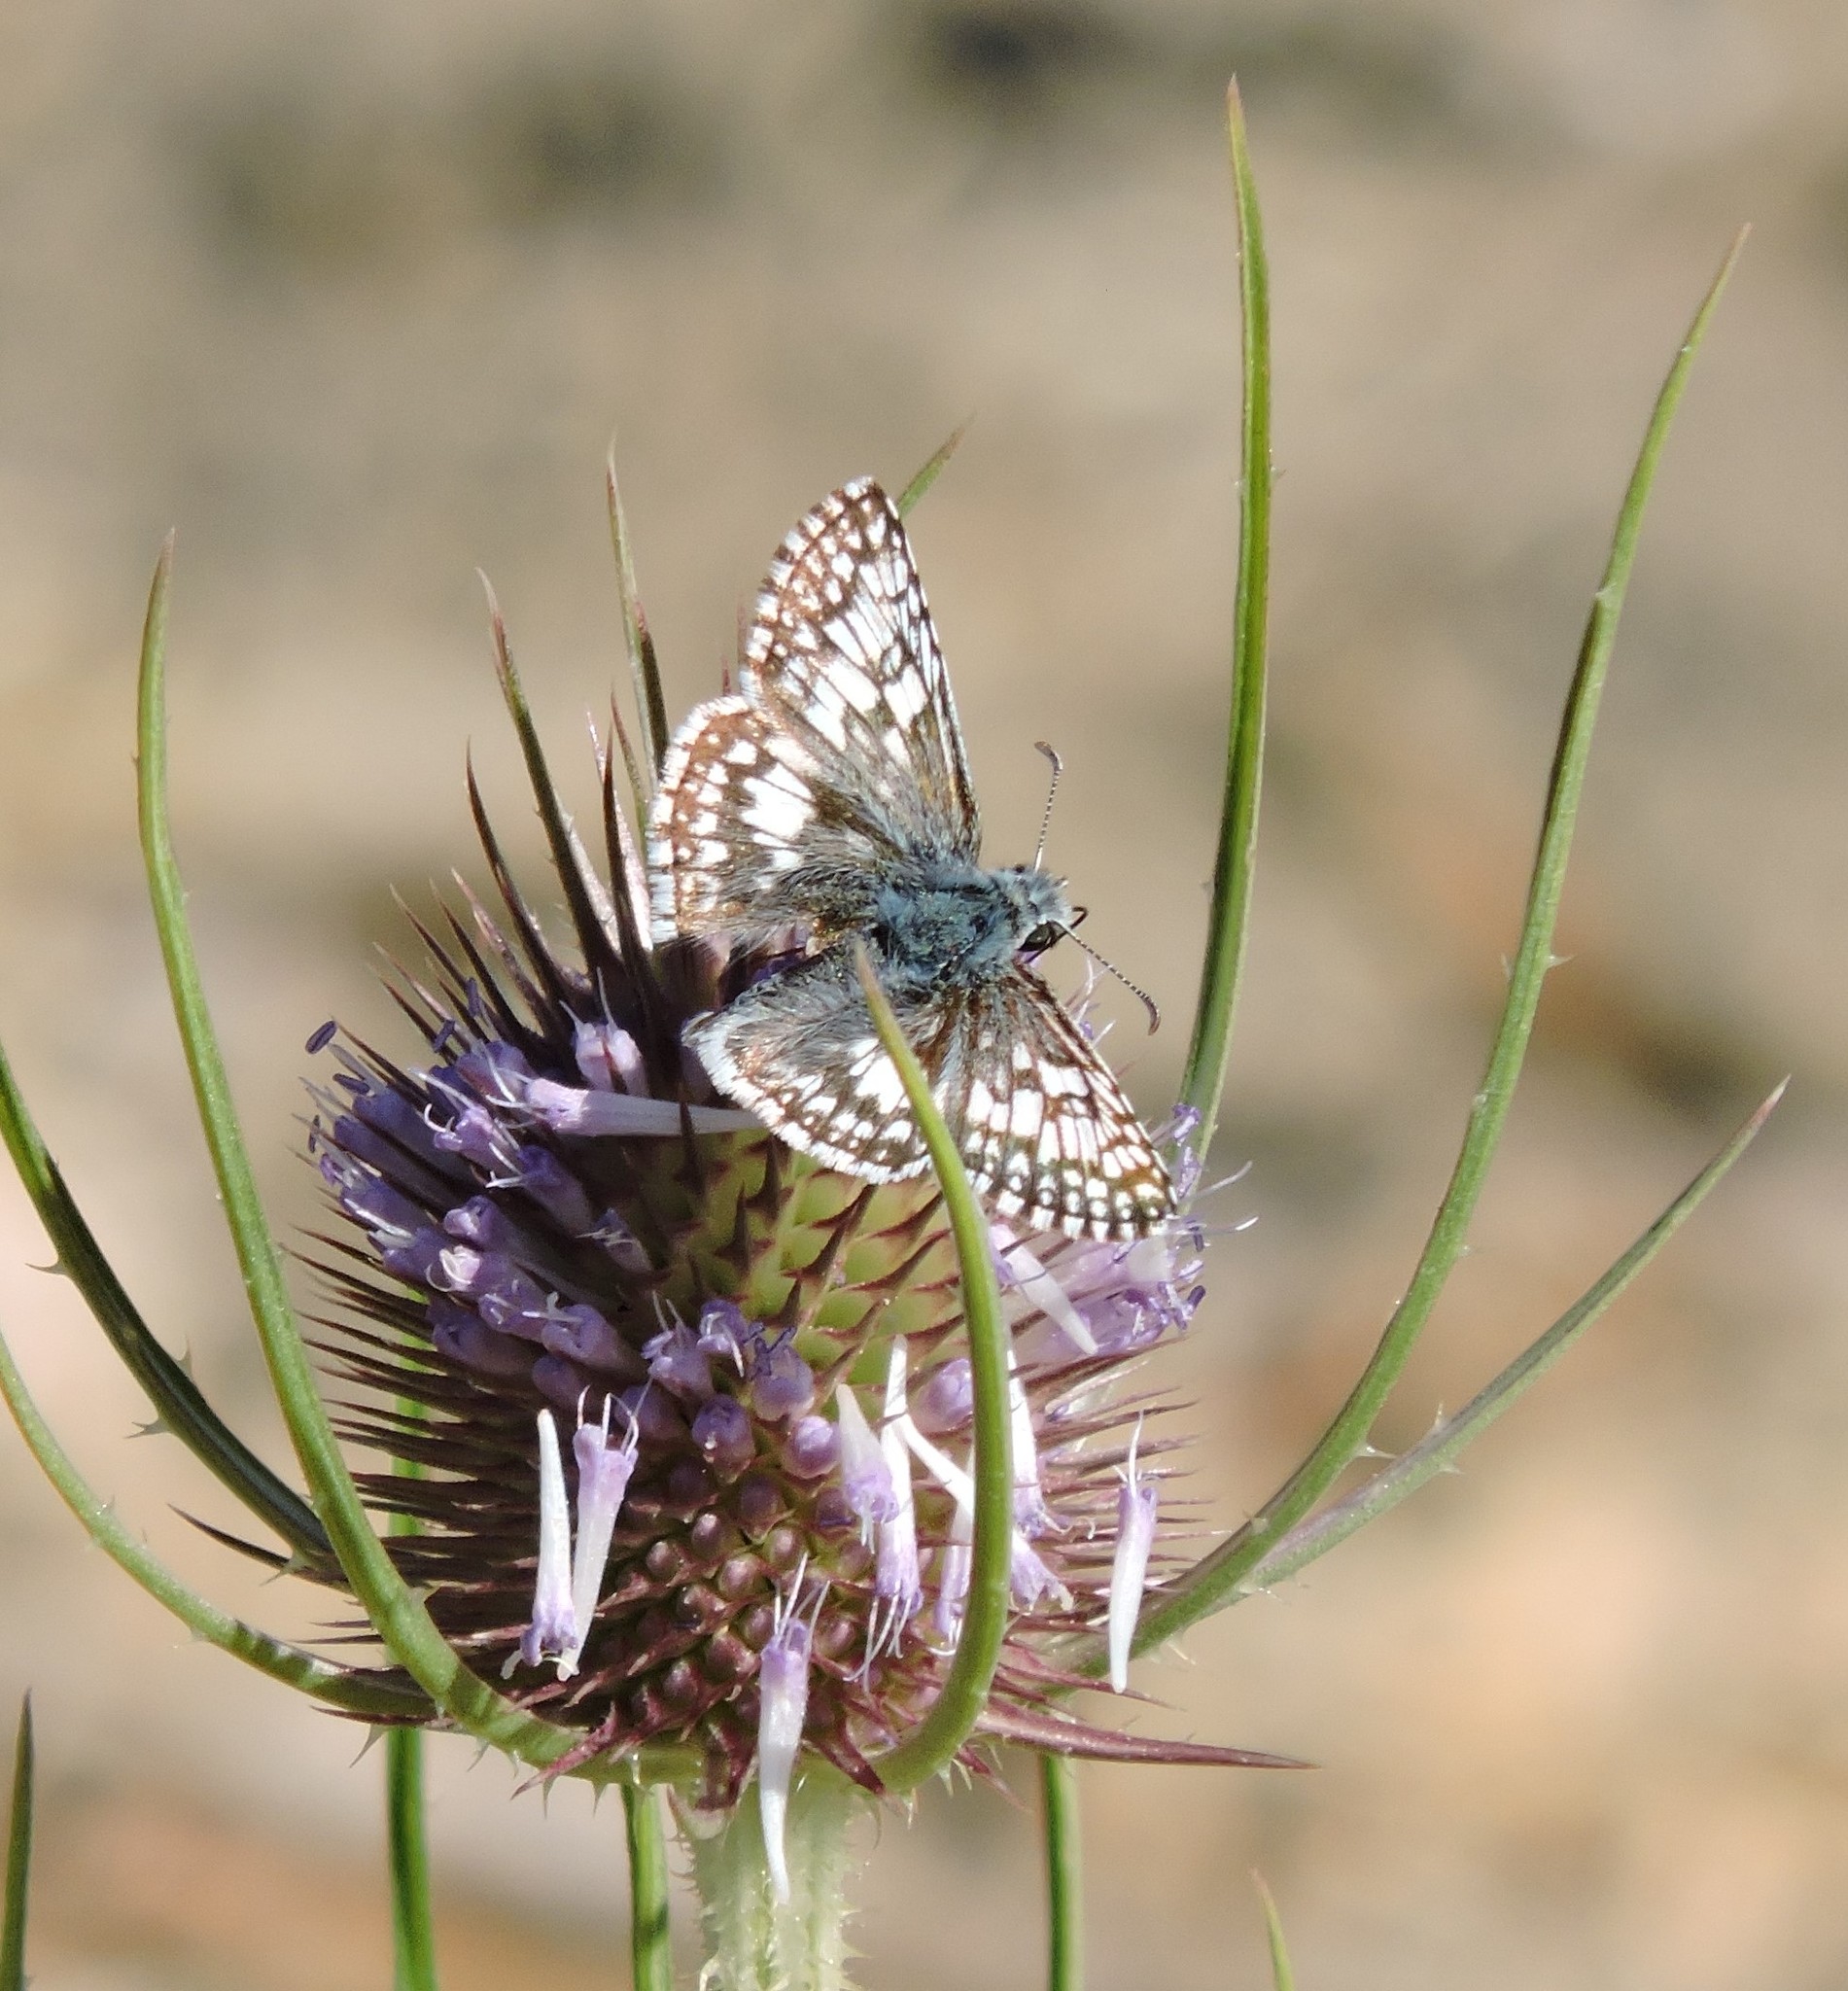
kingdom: Animalia
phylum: Arthropoda
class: Insecta
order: Lepidoptera
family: Hesperiidae
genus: Burnsius
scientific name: Burnsius communis
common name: Common checkered-skipper
